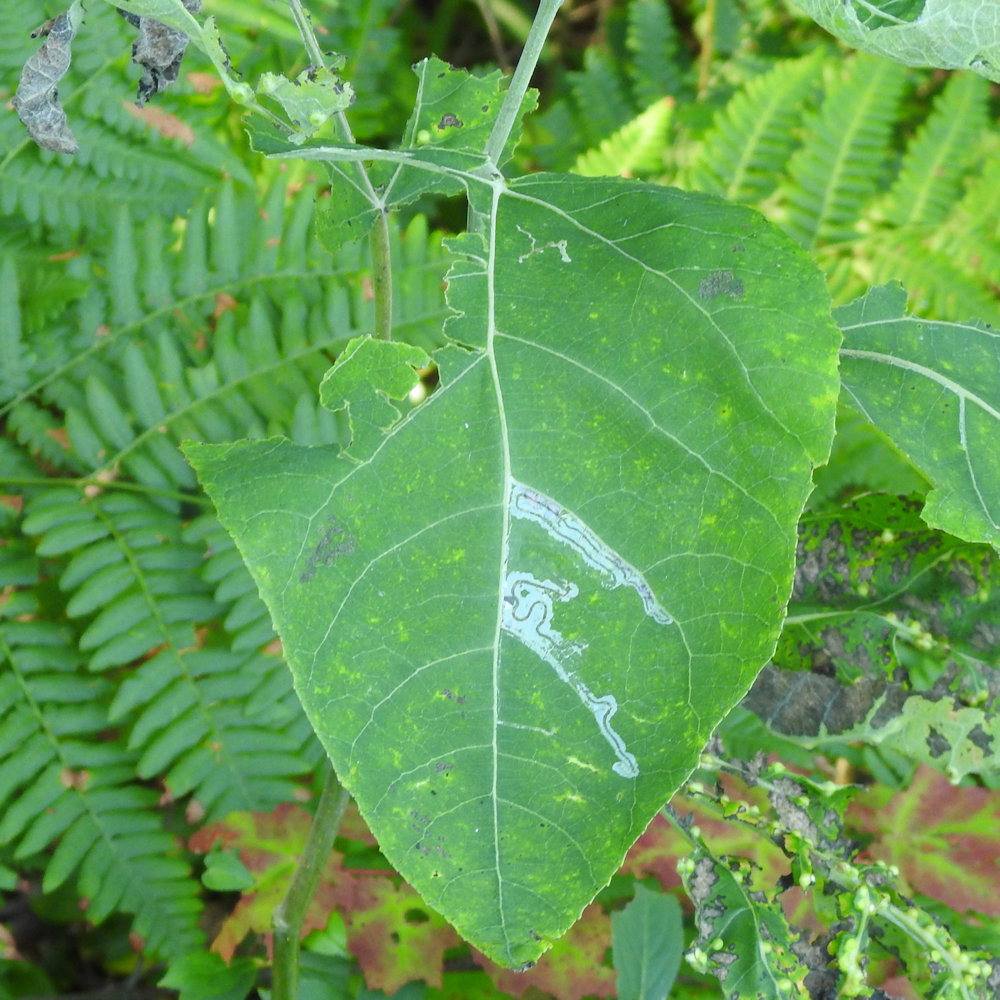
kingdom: Animalia
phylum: Arthropoda
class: Insecta
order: Lepidoptera
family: Gracillariidae
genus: Phyllocnistis
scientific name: Phyllocnistis populiella
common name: Aspen serpentine leafminer moth
